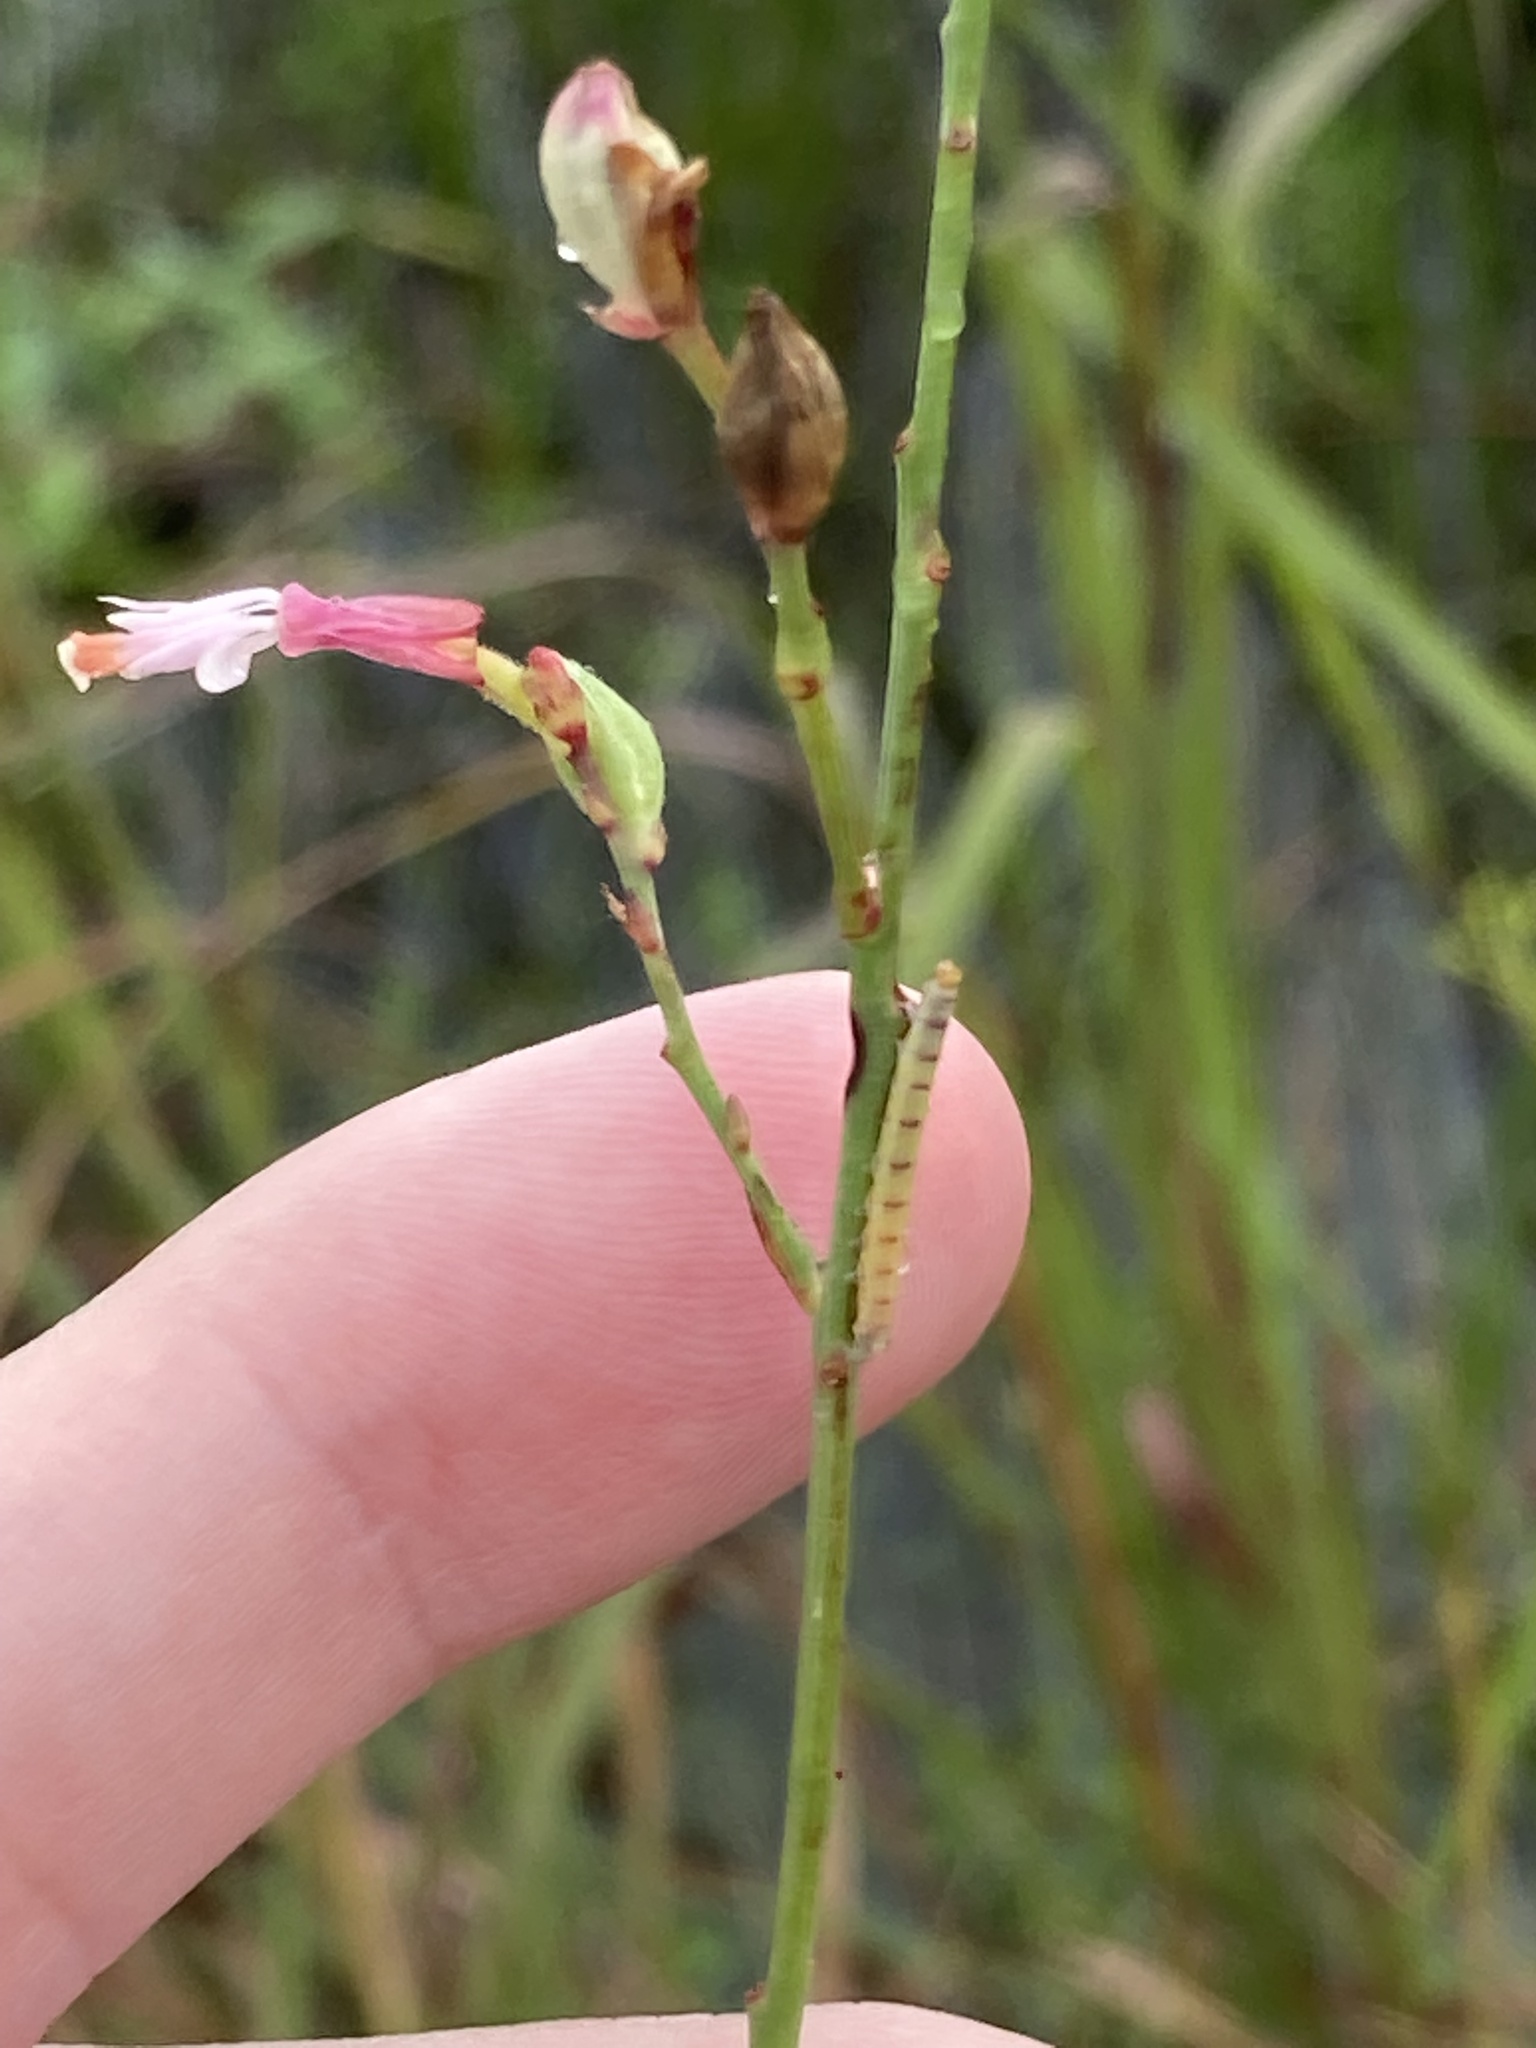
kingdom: Plantae
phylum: Tracheophyta
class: Magnoliopsida
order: Myrtales
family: Onagraceae
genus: Oenothera
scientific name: Oenothera simulans
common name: Southern beeblossom
